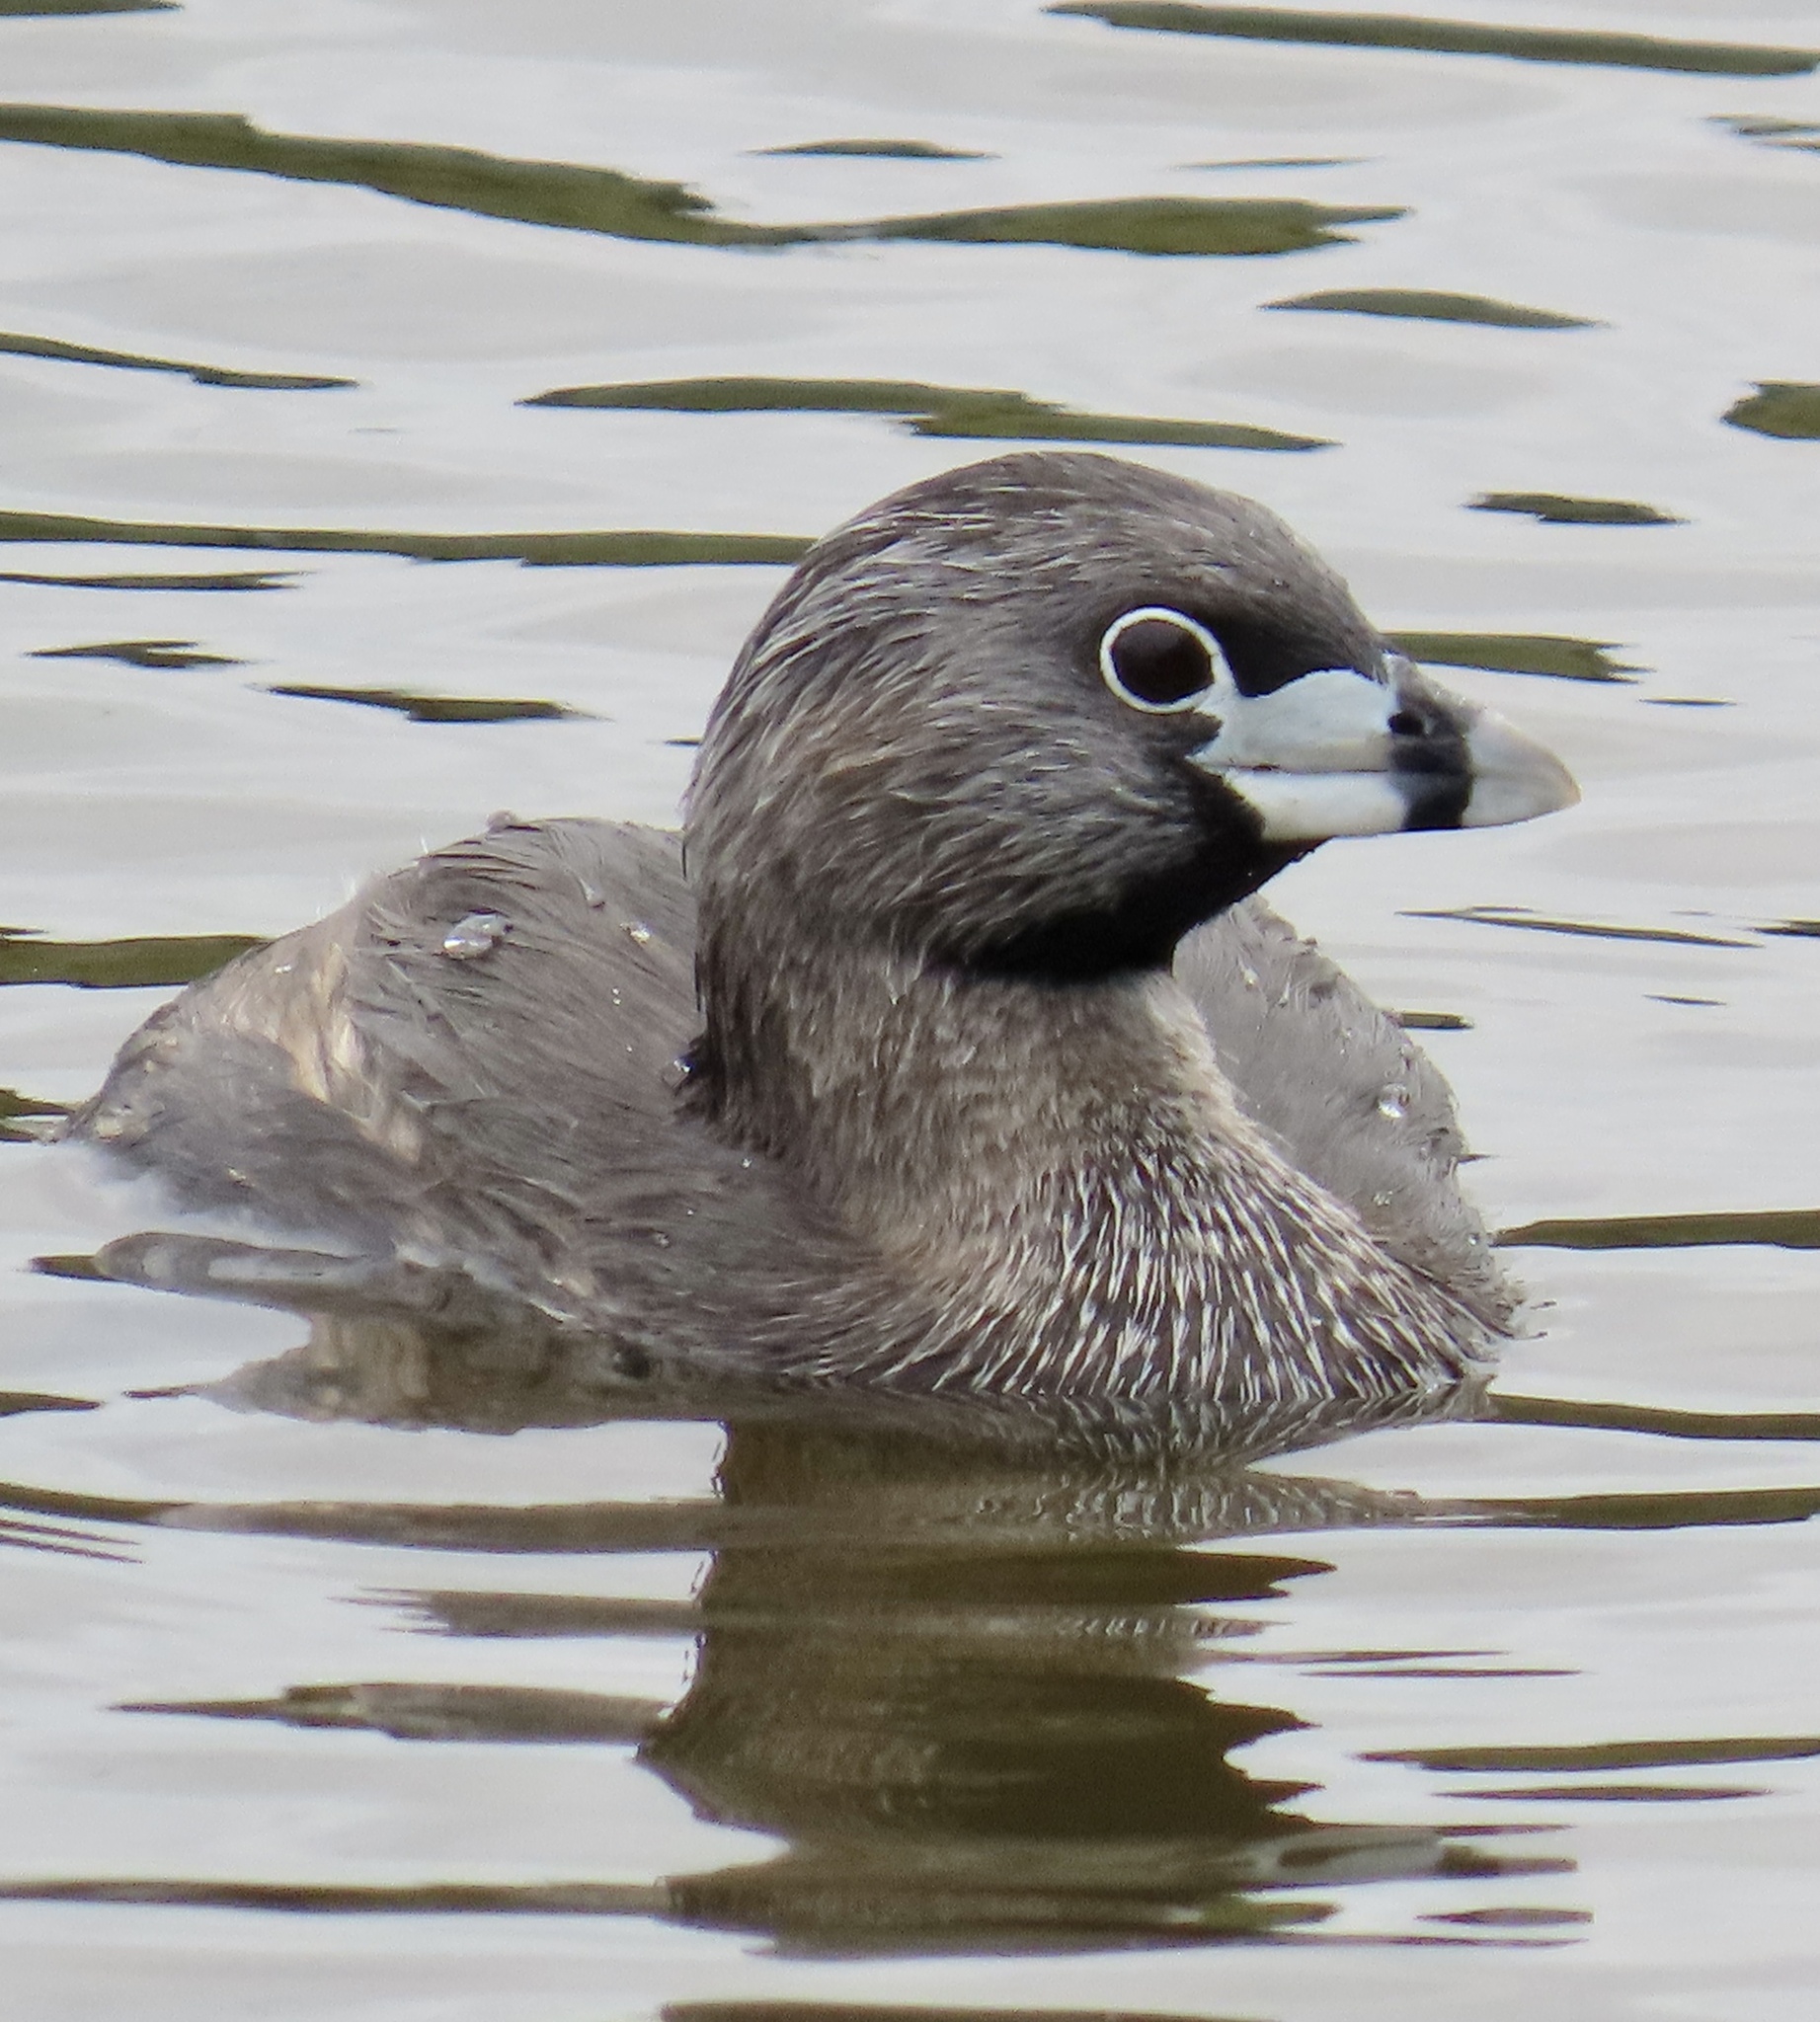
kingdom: Animalia
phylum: Chordata
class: Aves
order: Podicipediformes
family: Podicipedidae
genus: Podilymbus
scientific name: Podilymbus podiceps
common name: Pied-billed grebe
